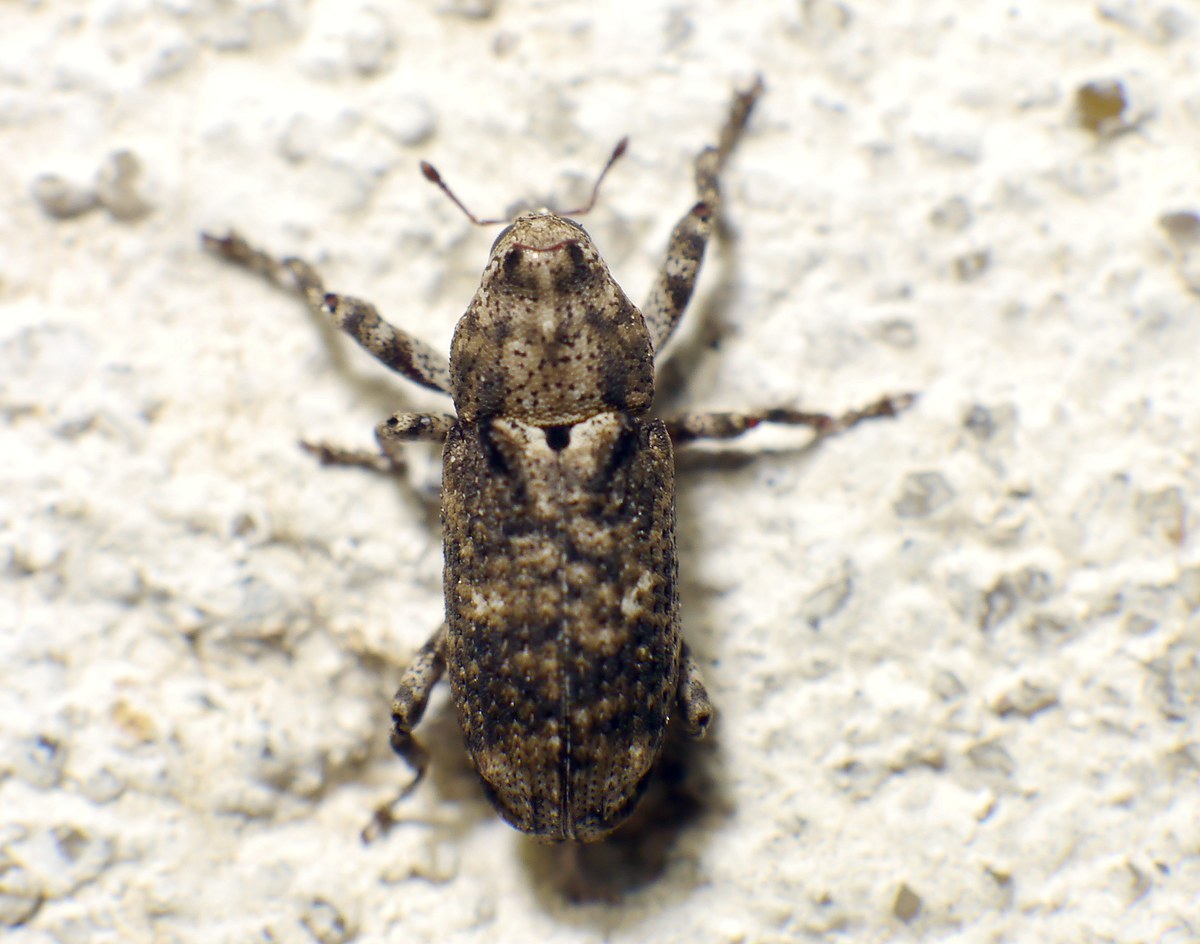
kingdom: Animalia
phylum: Arthropoda
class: Insecta
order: Coleoptera
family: Curculionidae
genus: Gasterocercus
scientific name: Gasterocercus depressirostris
